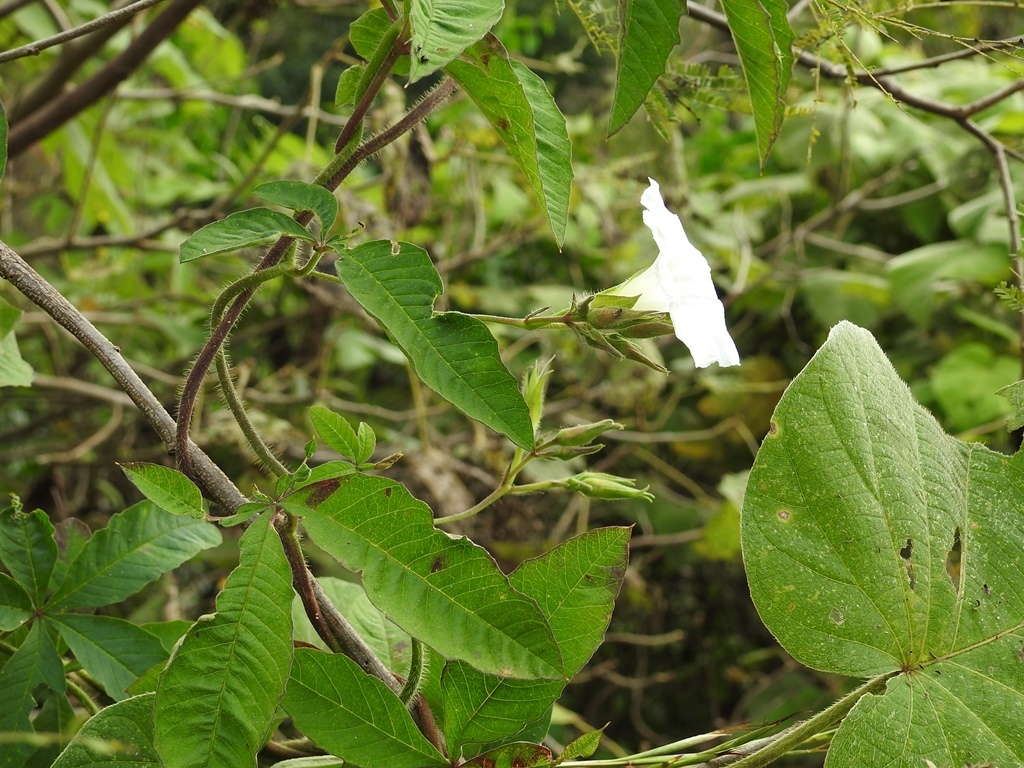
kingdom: Plantae
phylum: Tracheophyta
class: Magnoliopsida
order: Solanales
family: Convolvulaceae
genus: Distimake
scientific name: Distimake cissoides
